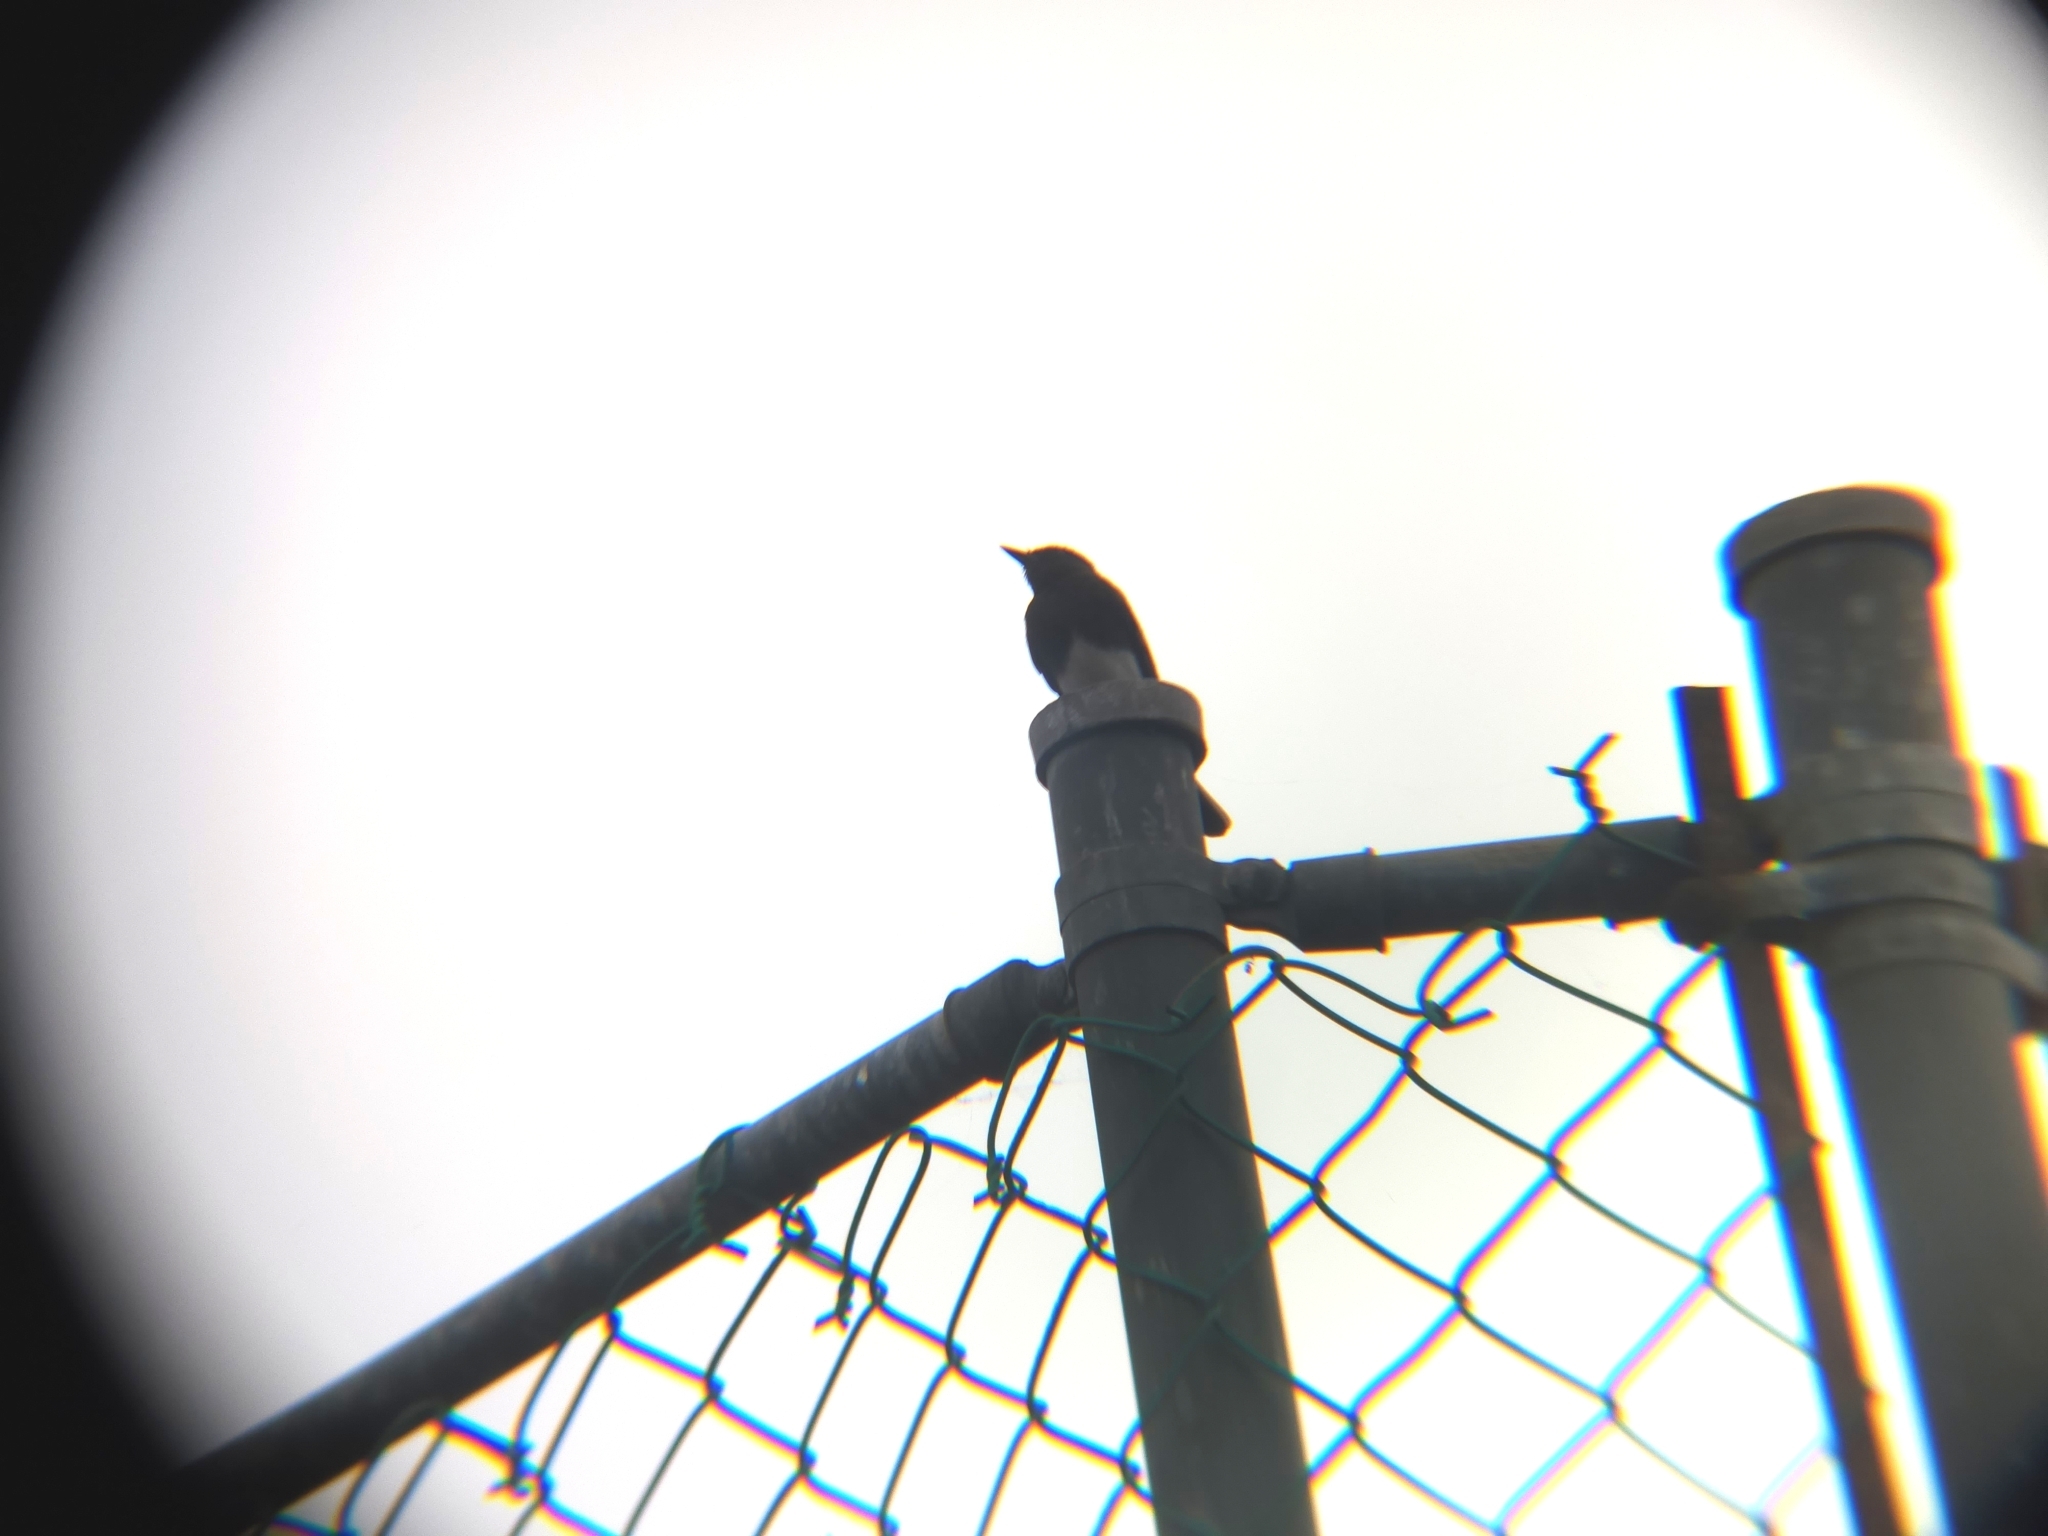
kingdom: Animalia
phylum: Chordata
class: Aves
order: Passeriformes
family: Tyrannidae
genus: Sayornis
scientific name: Sayornis nigricans
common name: Black phoebe
